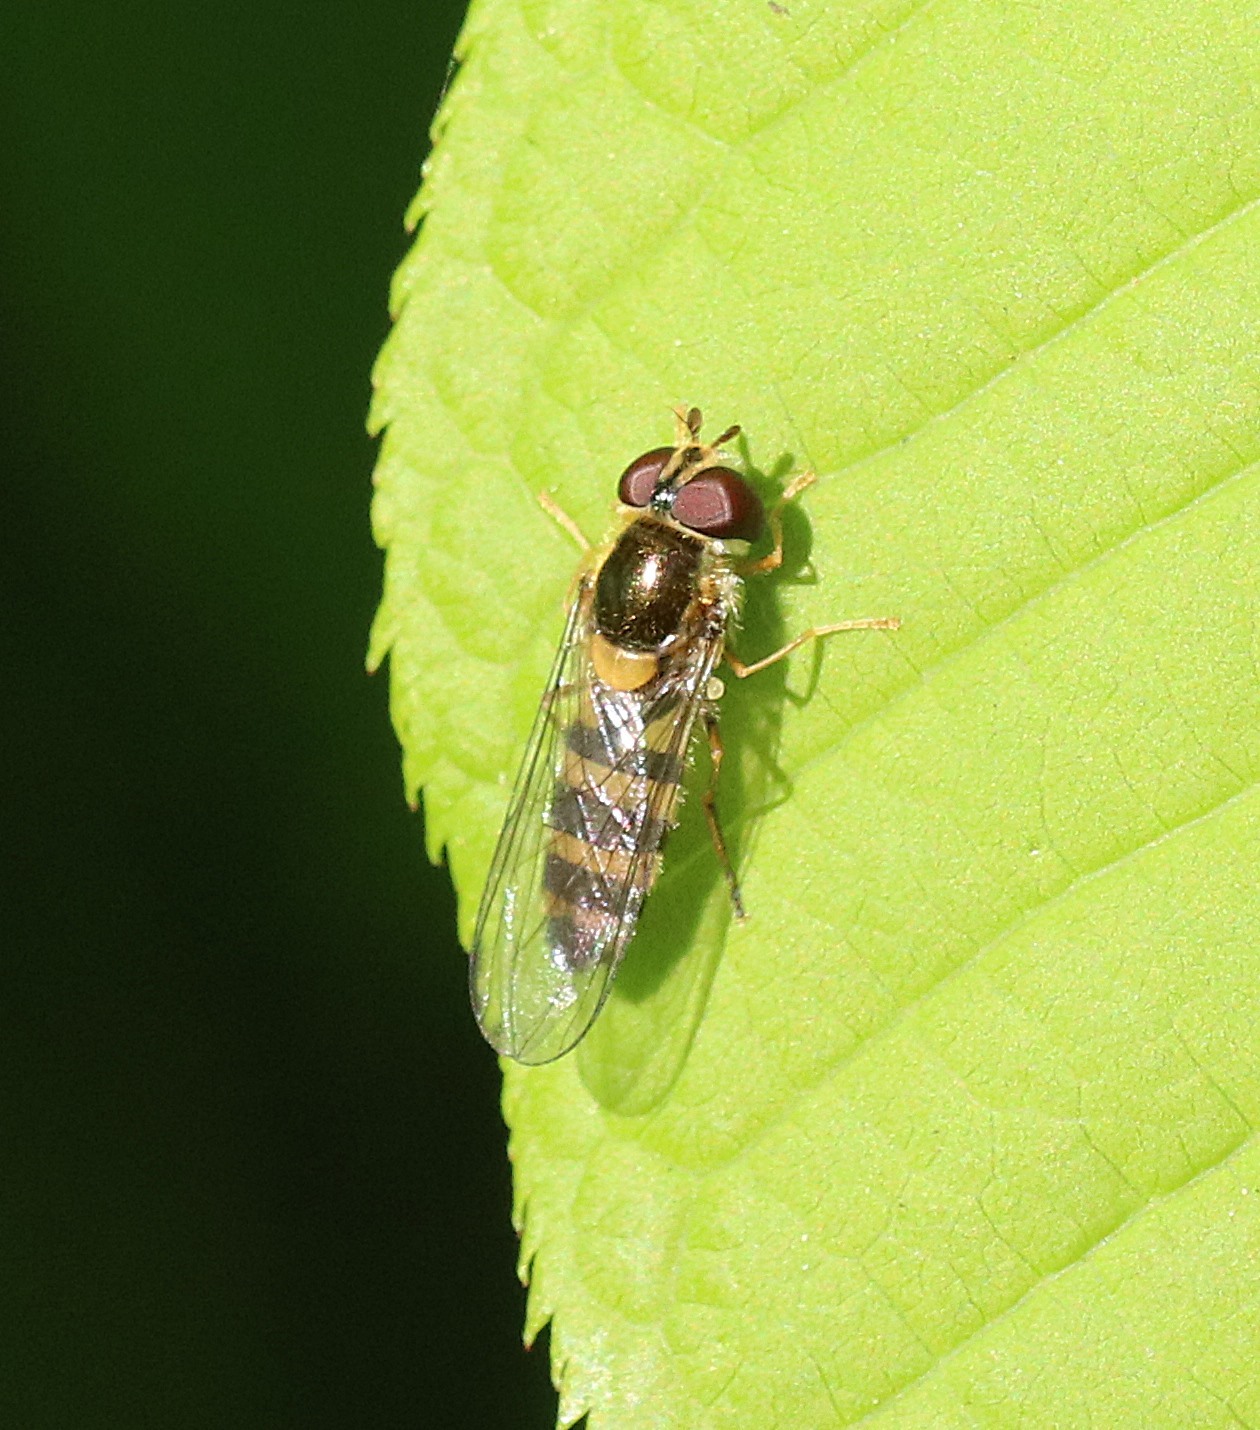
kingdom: Animalia
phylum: Arthropoda
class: Insecta
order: Diptera
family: Syrphidae
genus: Fagisyrphus
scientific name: Fagisyrphus cincta
